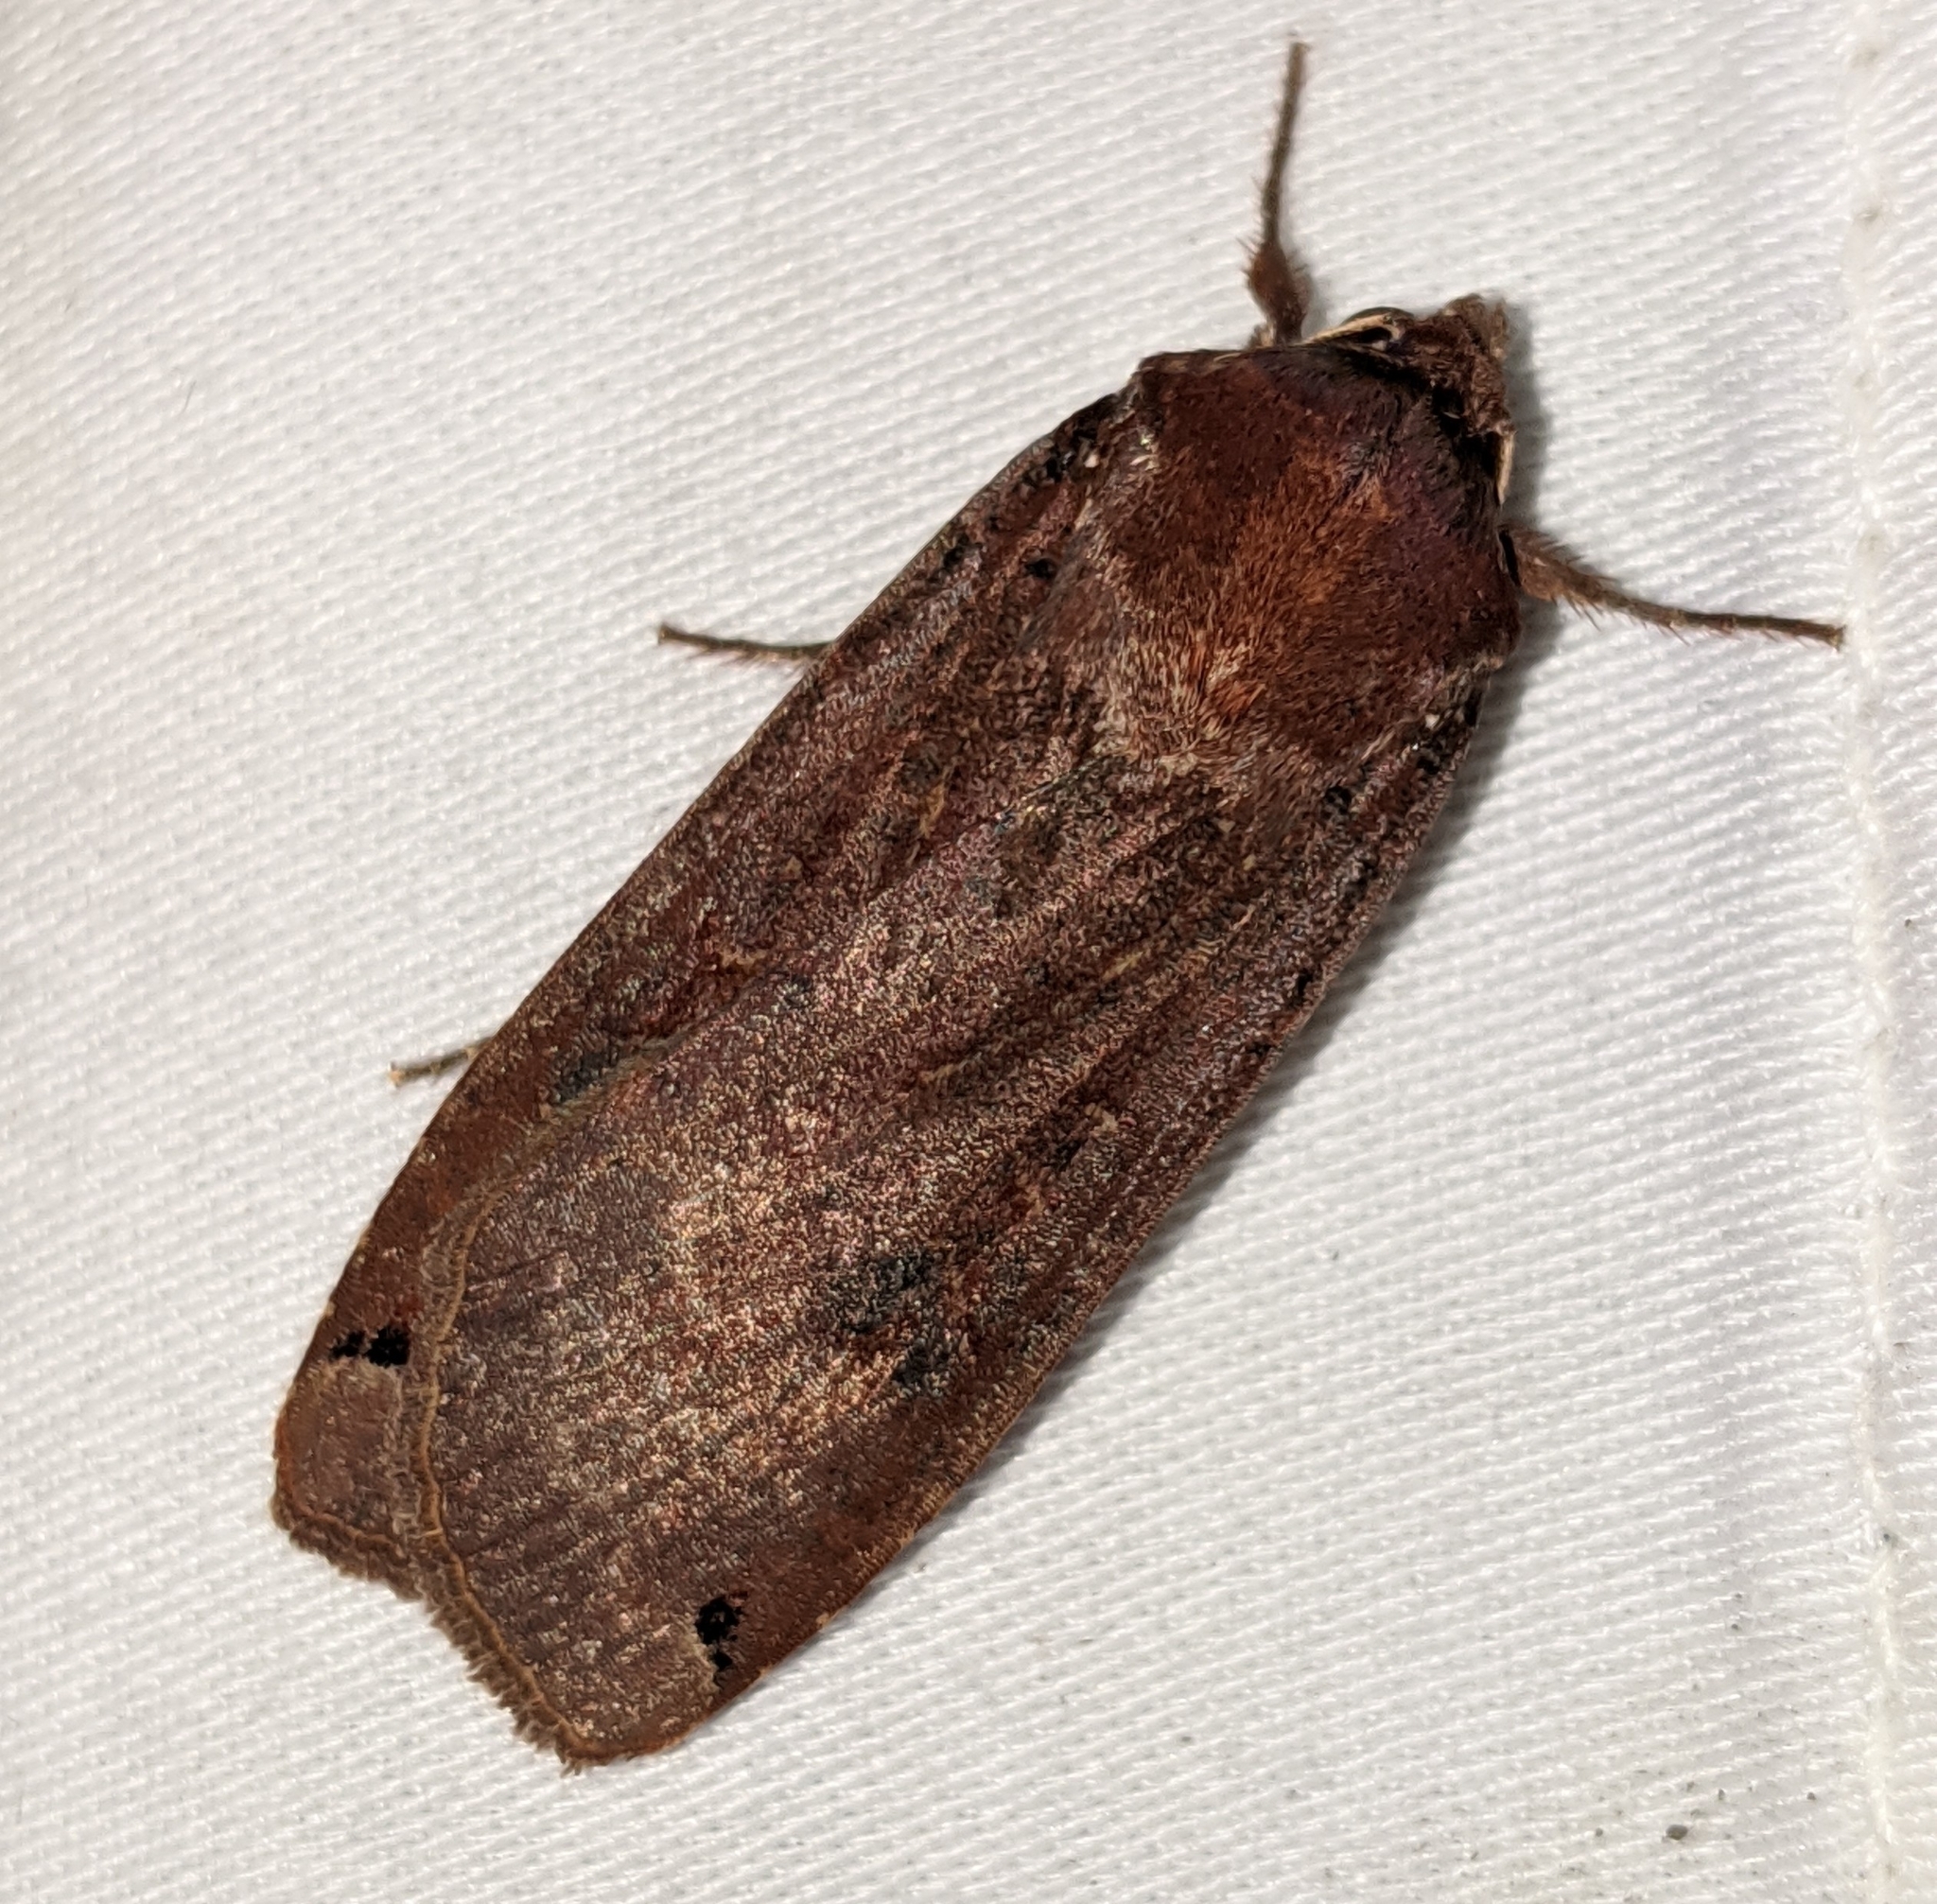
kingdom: Animalia
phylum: Arthropoda
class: Insecta
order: Lepidoptera
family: Noctuidae
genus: Noctua
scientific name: Noctua pronuba
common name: Large yellow underwing
